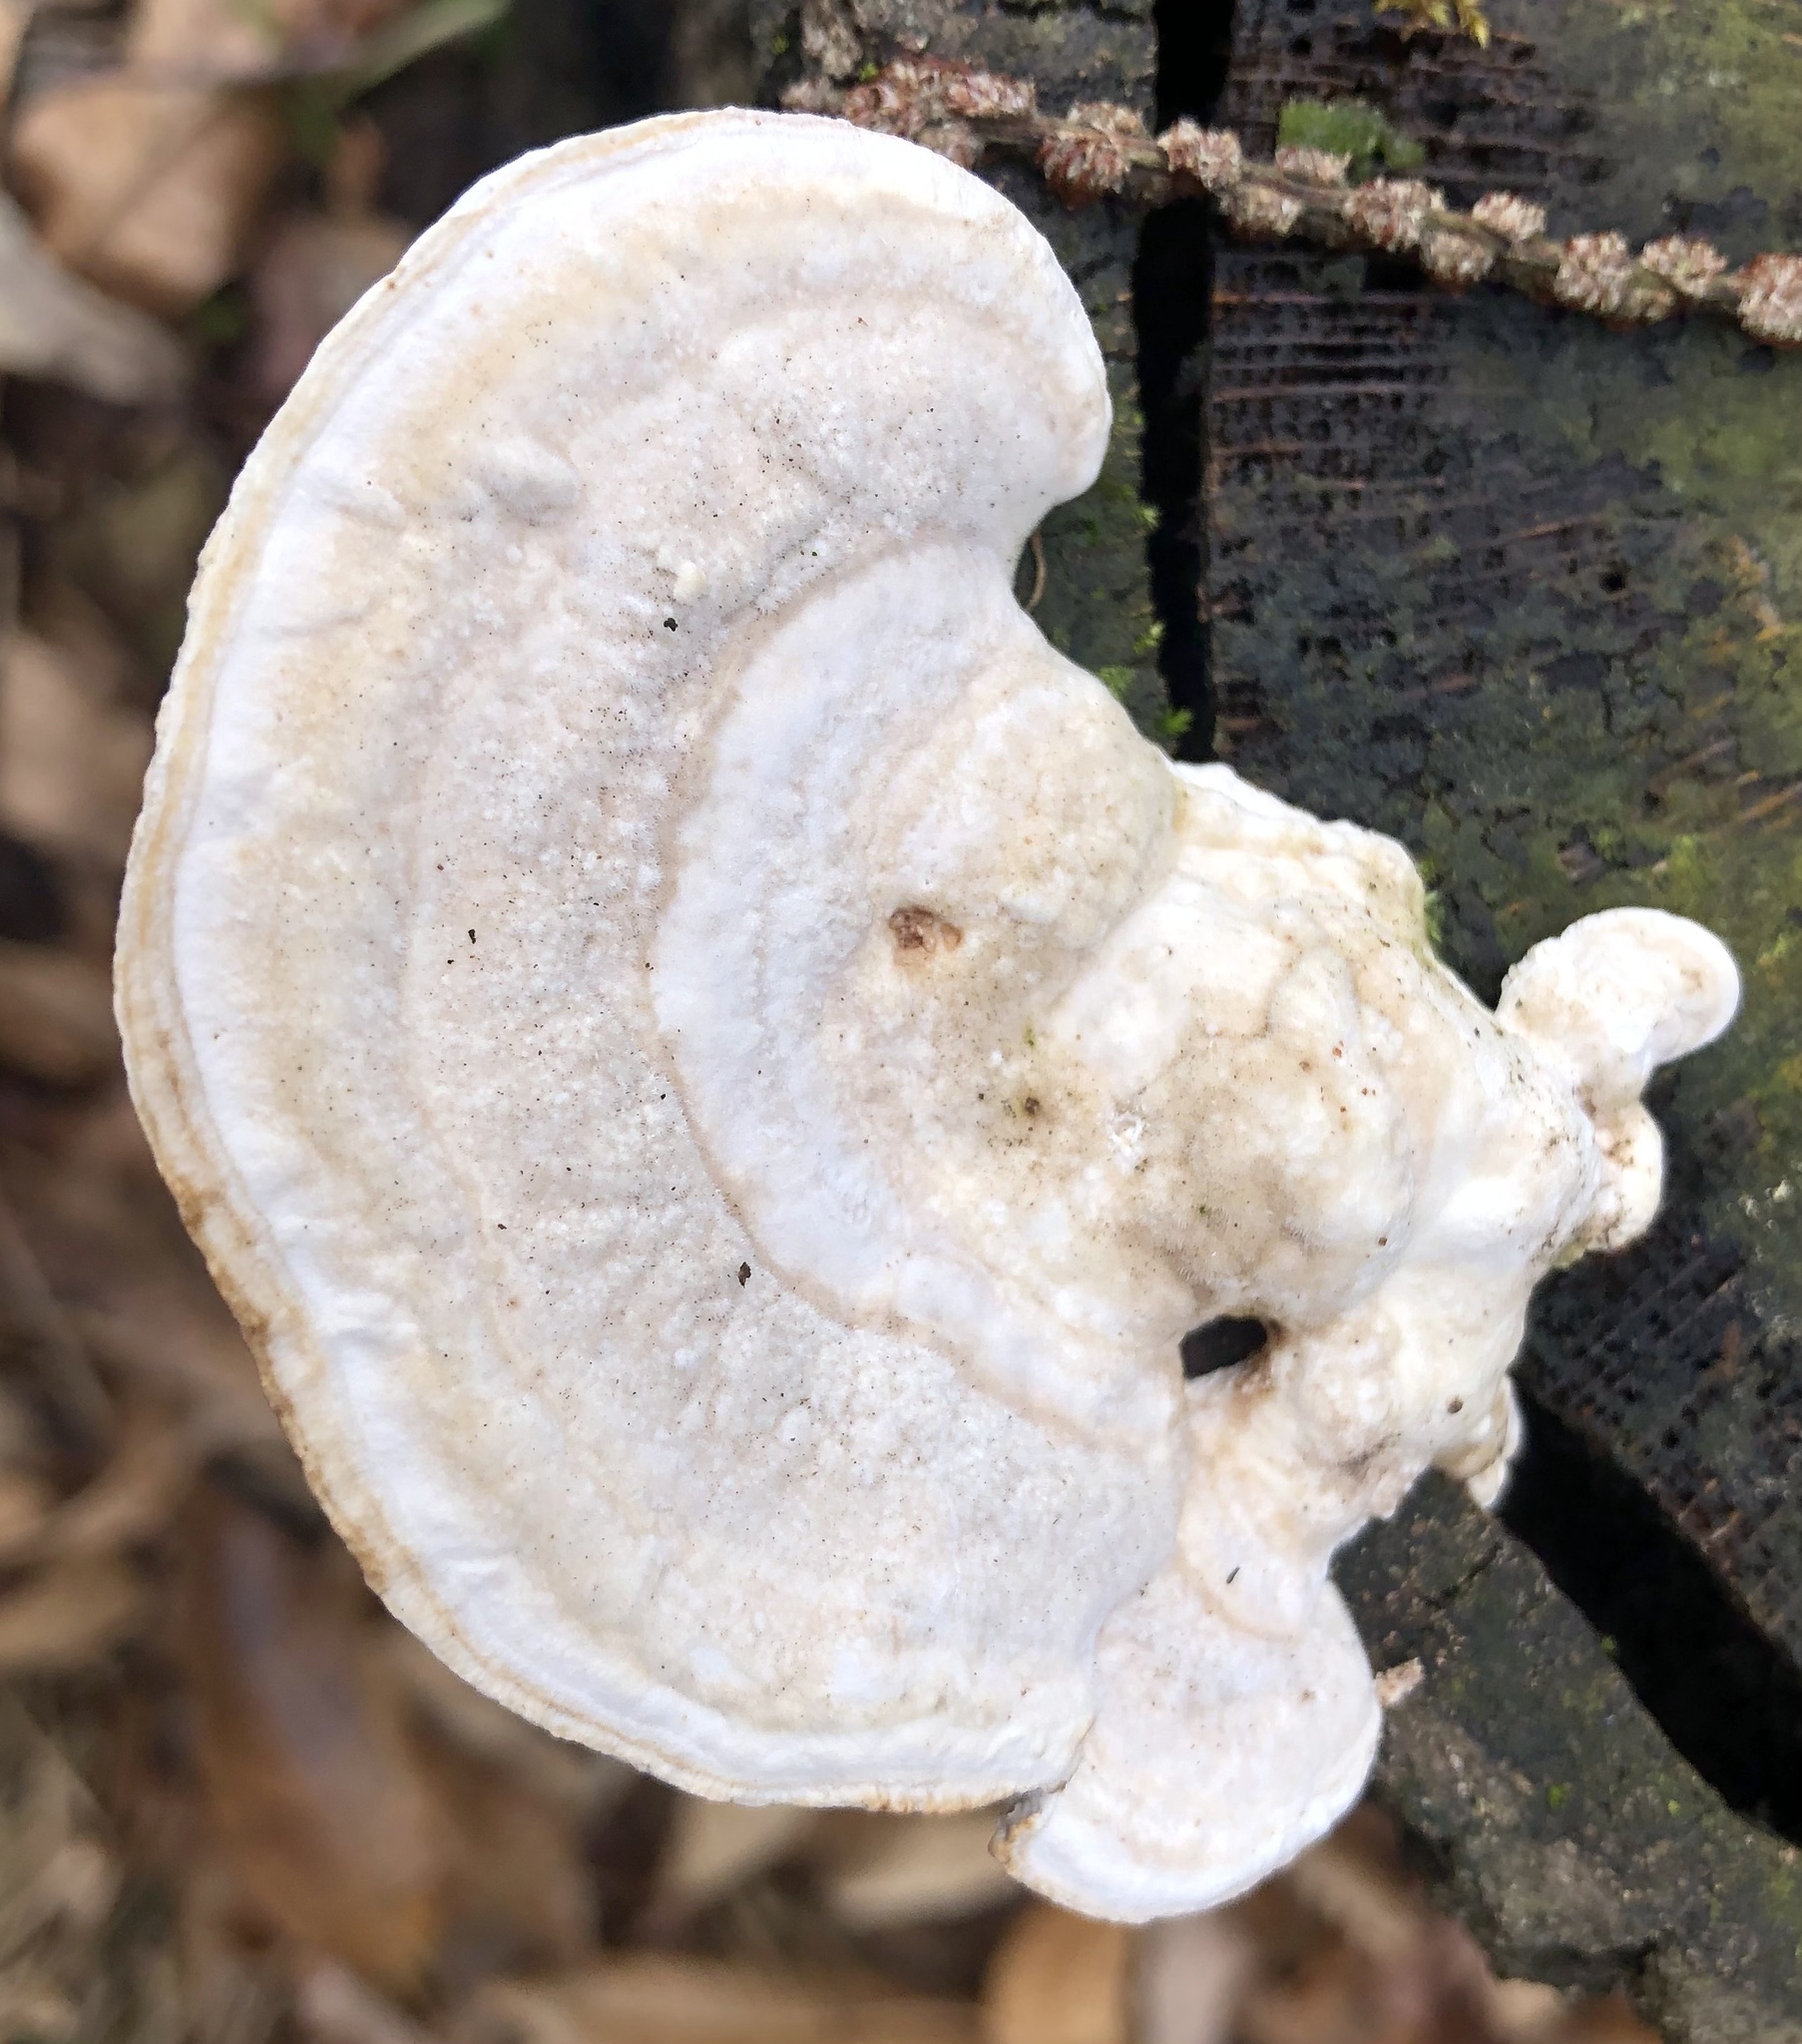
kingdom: Fungi
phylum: Basidiomycota
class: Agaricomycetes
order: Polyporales
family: Polyporaceae
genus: Trametes
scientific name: Trametes gibbosa
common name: Lumpy bracket
